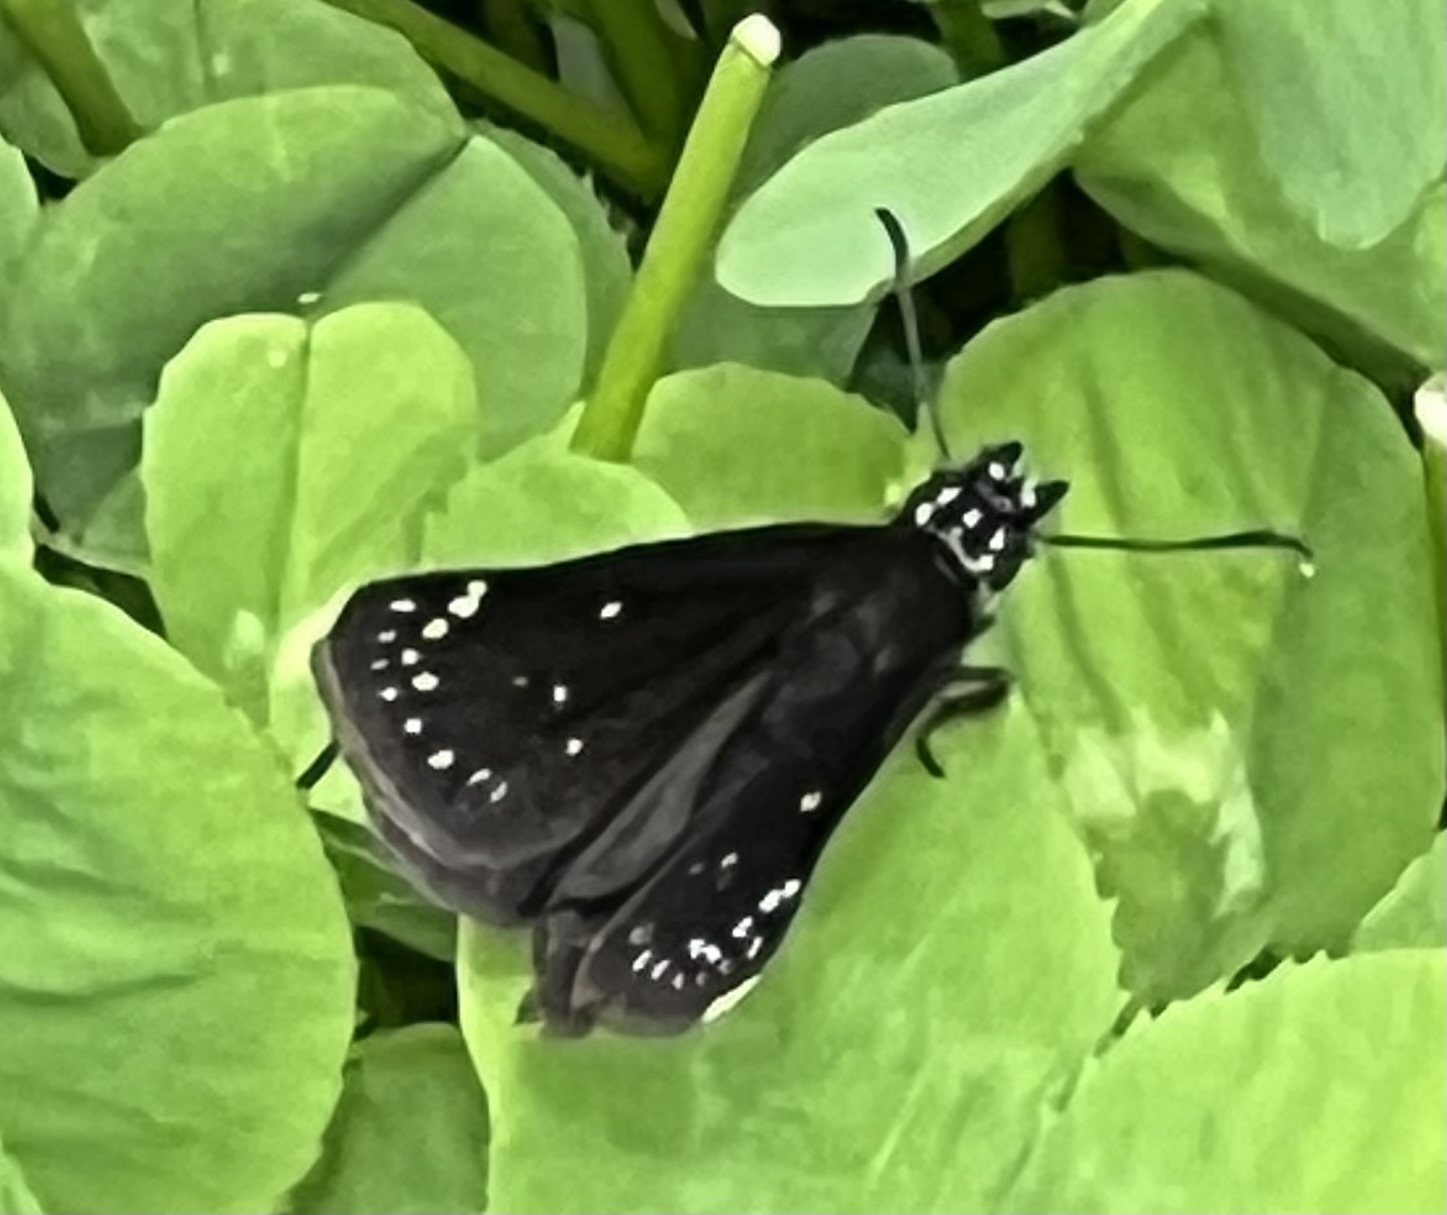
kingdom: Animalia
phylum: Arthropoda
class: Insecta
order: Lepidoptera
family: Hesperiidae
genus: Pholisora
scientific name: Pholisora catullus
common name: Common sootywing
